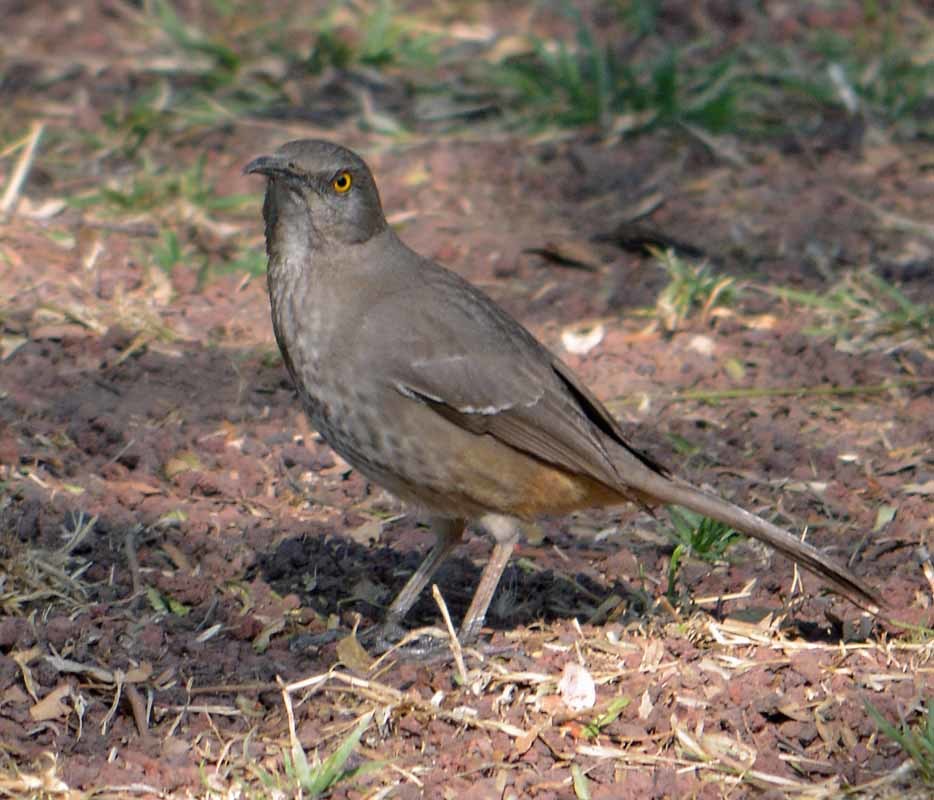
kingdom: Animalia
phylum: Chordata
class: Aves
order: Passeriformes
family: Mimidae
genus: Toxostoma
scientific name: Toxostoma curvirostre
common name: Curve-billed thrasher
